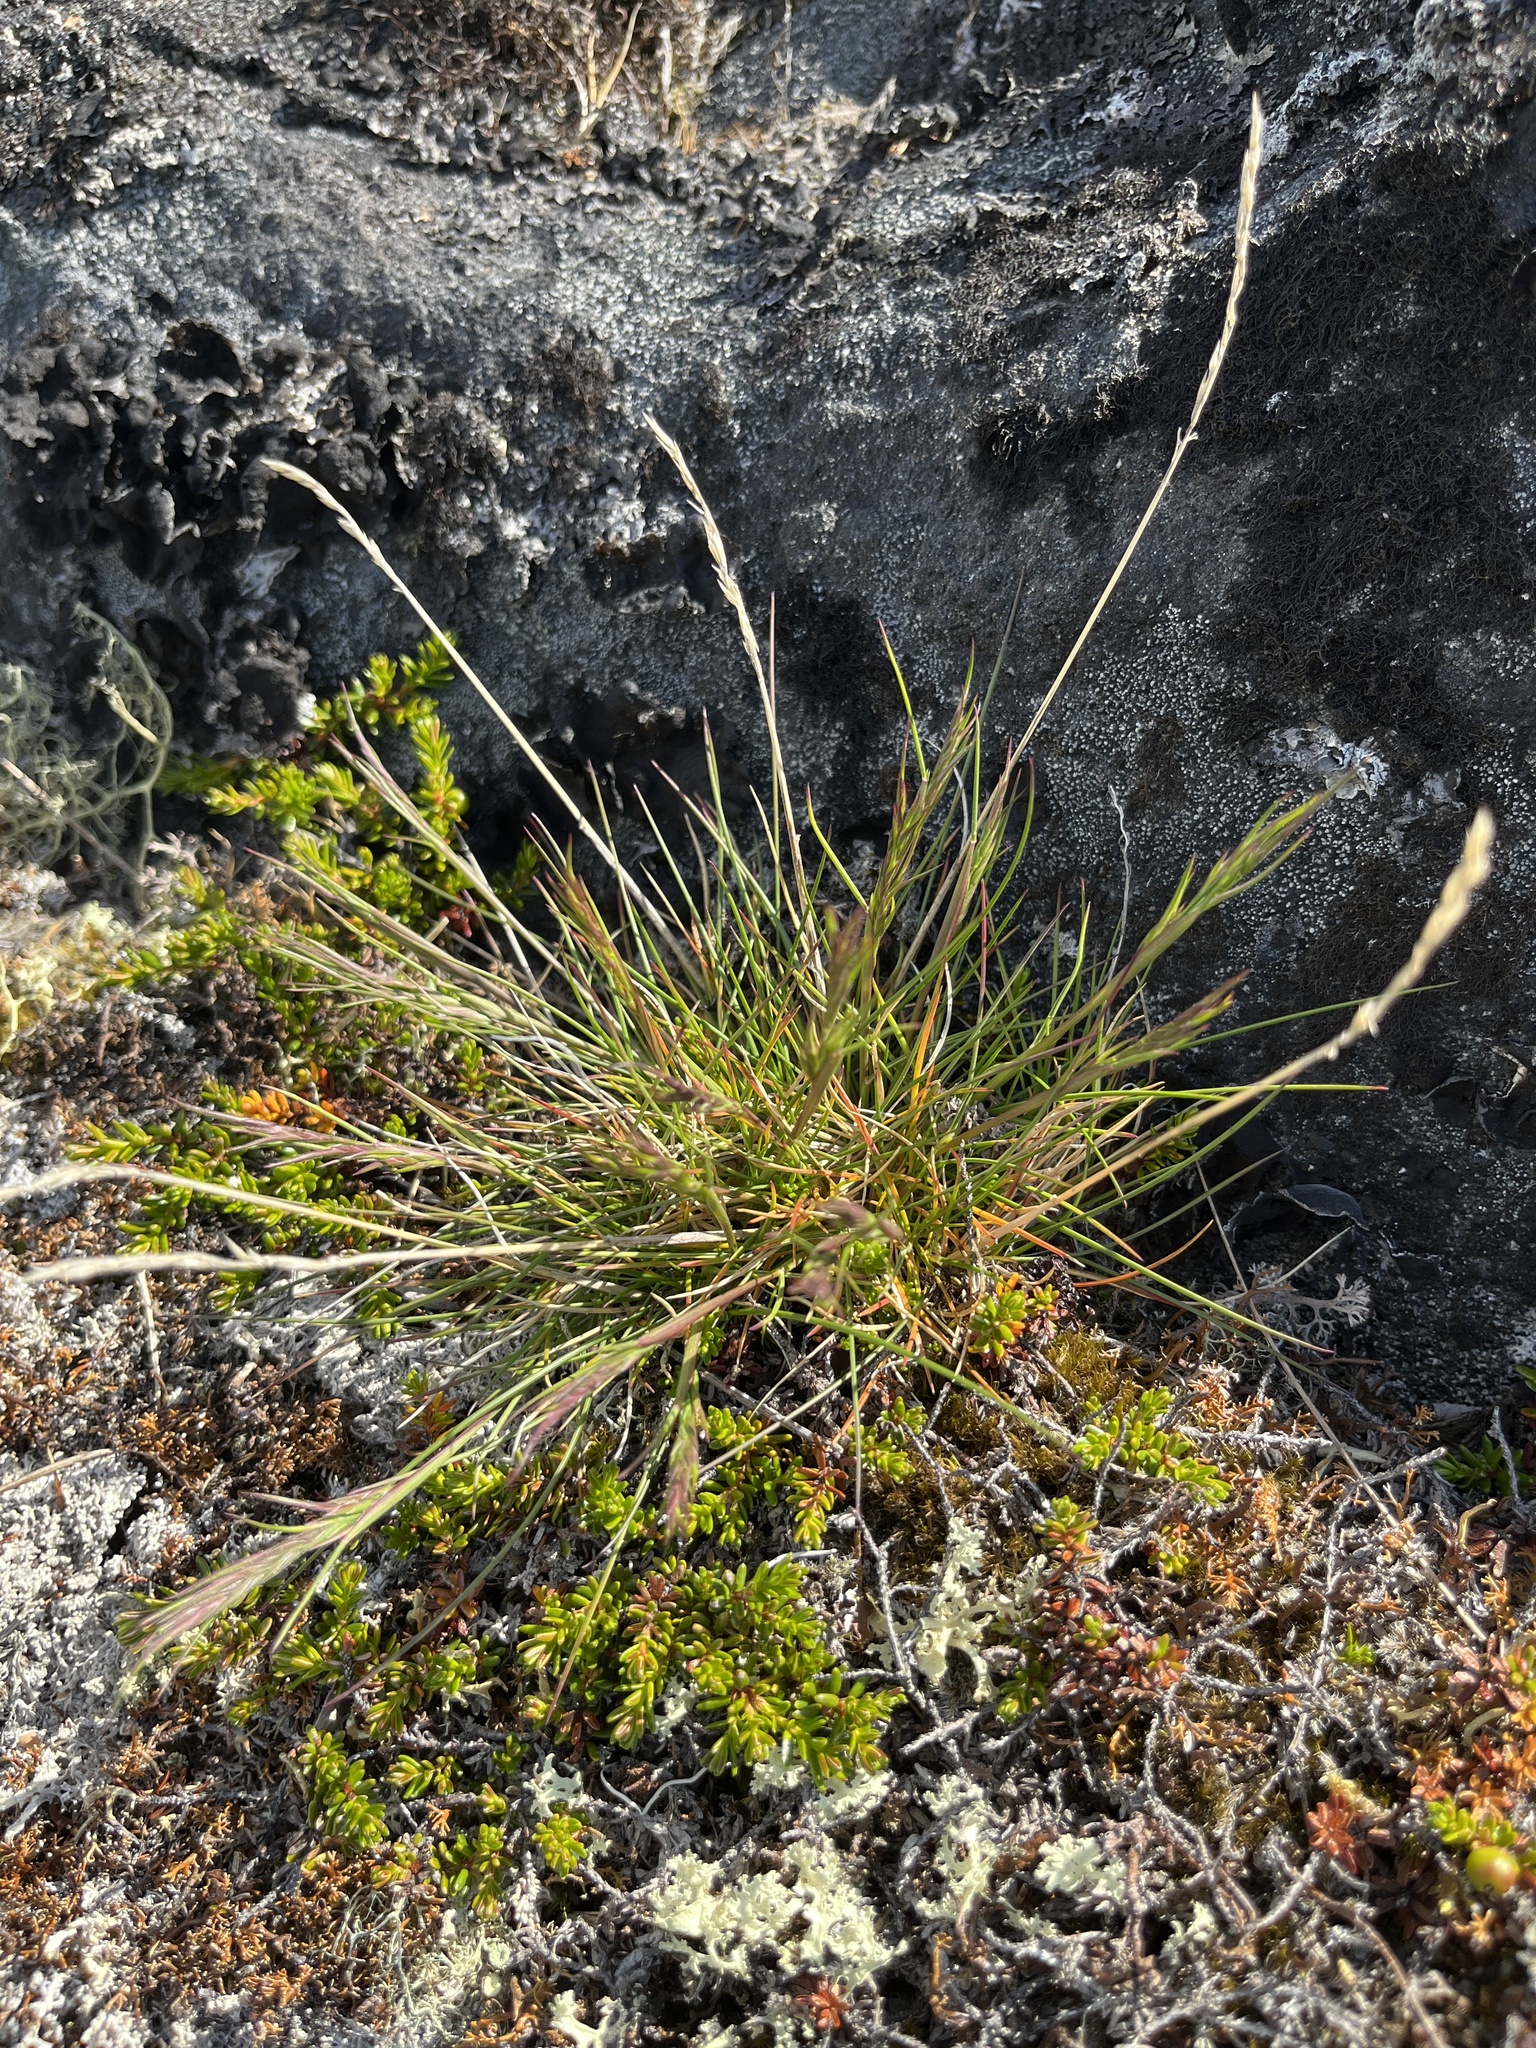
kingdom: Plantae
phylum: Tracheophyta
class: Liliopsida
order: Poales
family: Poaceae
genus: Festuca
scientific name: Festuca vivipara
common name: Viviparous sheep's-fescue
